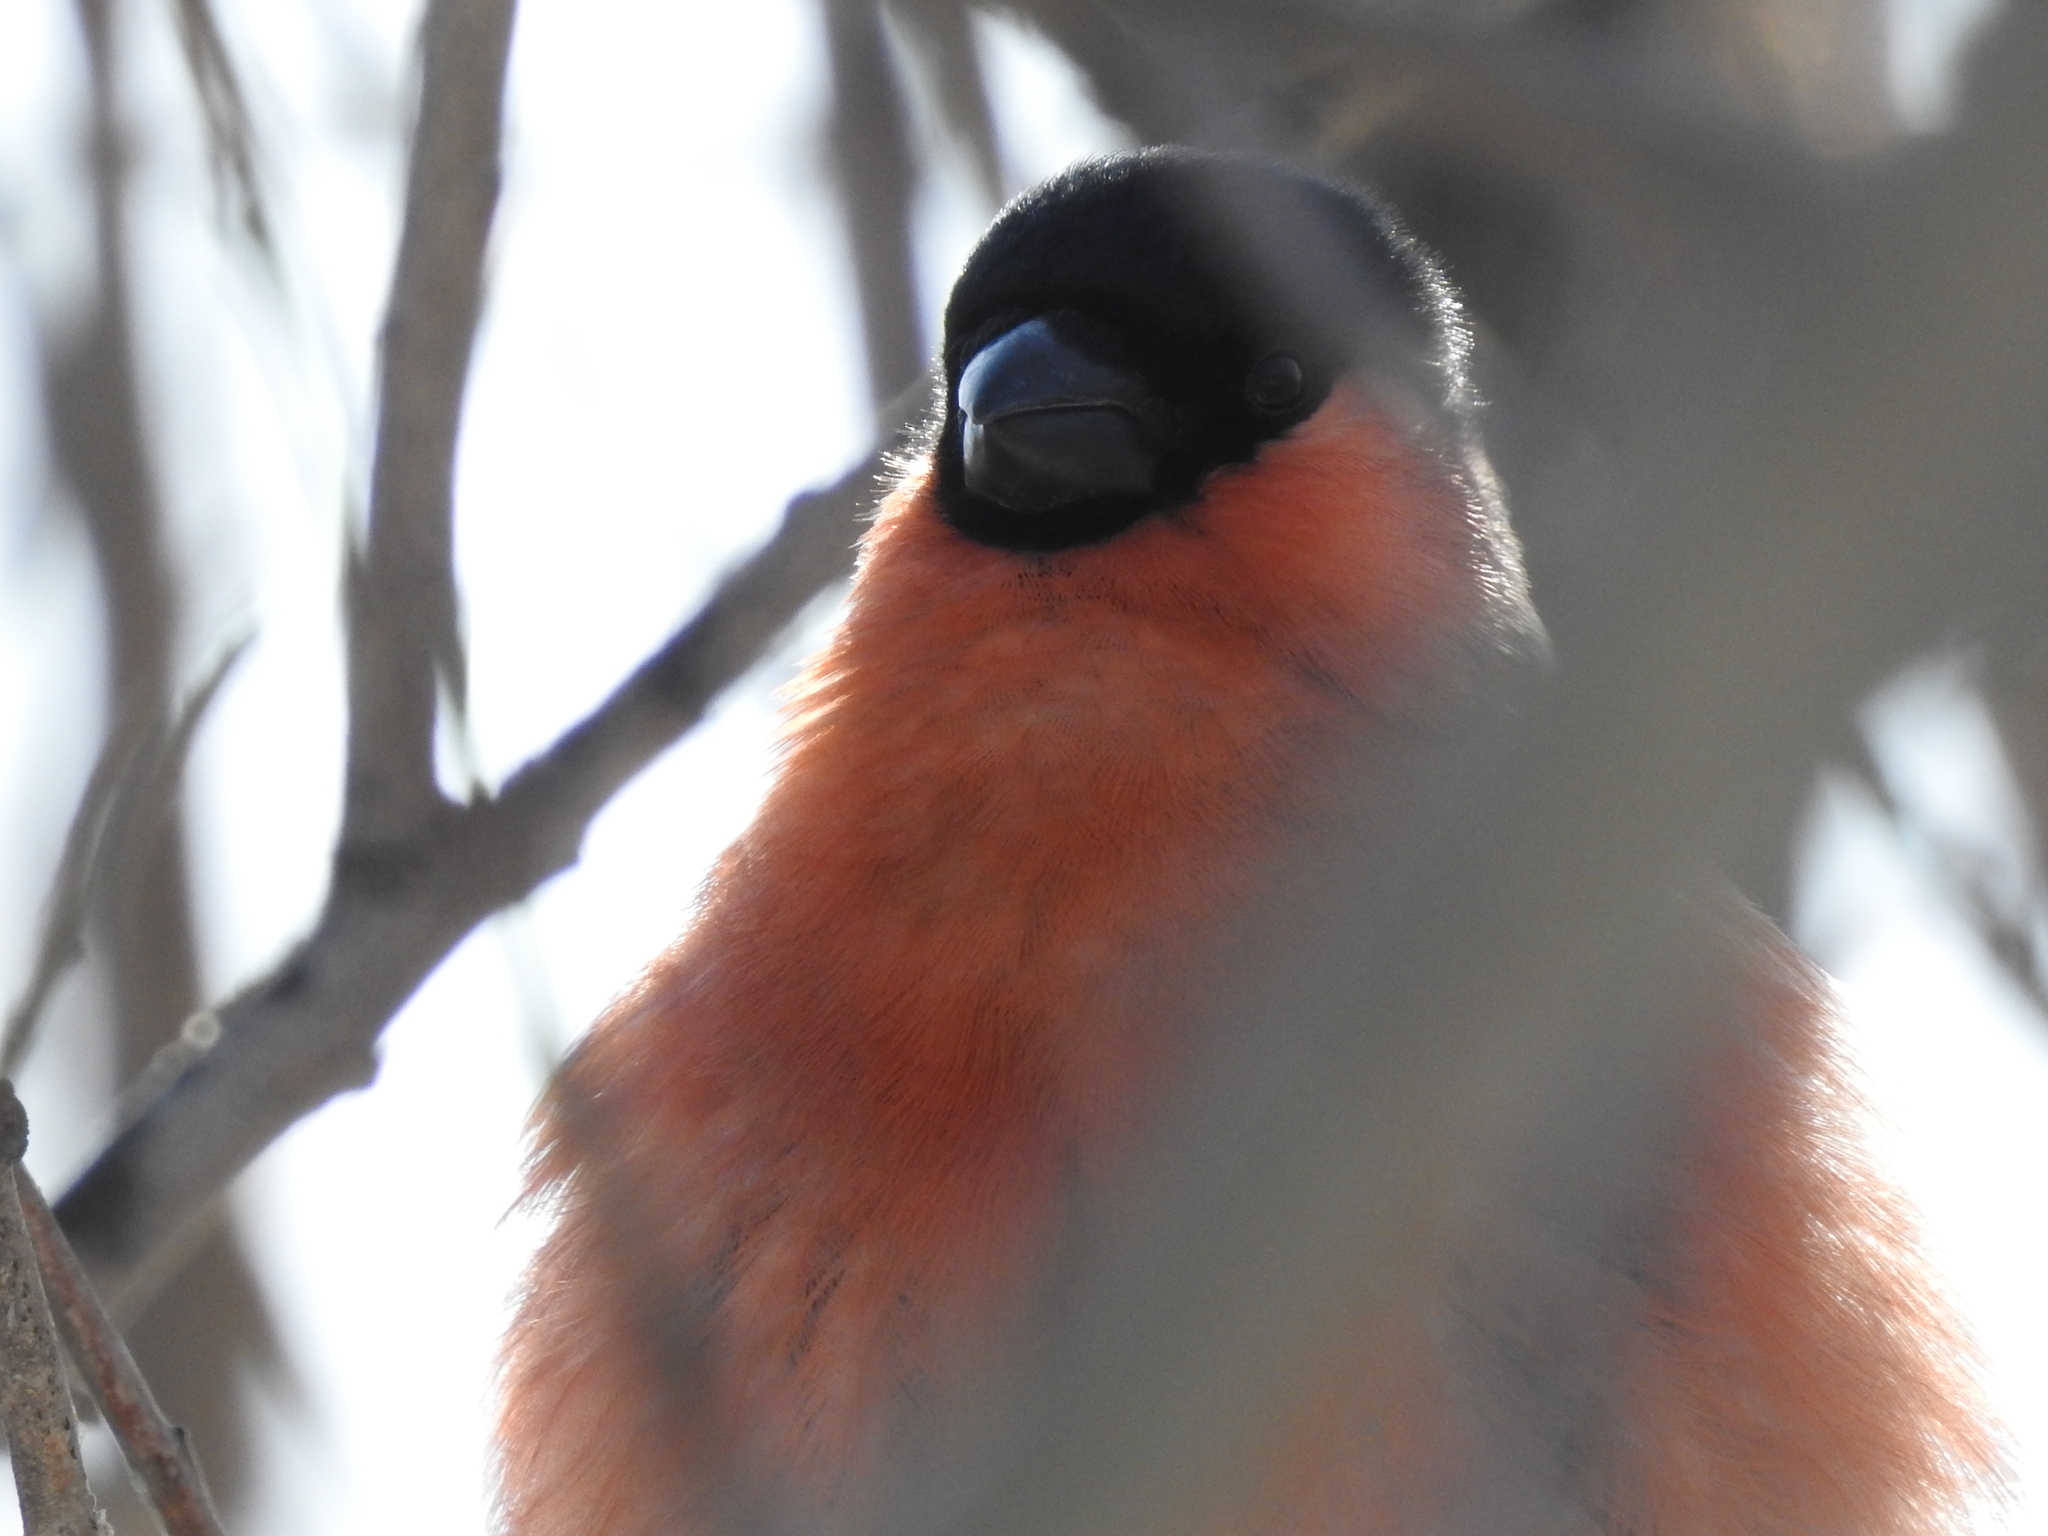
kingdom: Animalia
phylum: Chordata
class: Aves
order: Passeriformes
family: Fringillidae
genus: Pyrrhula
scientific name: Pyrrhula pyrrhula
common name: Eurasian bullfinch
